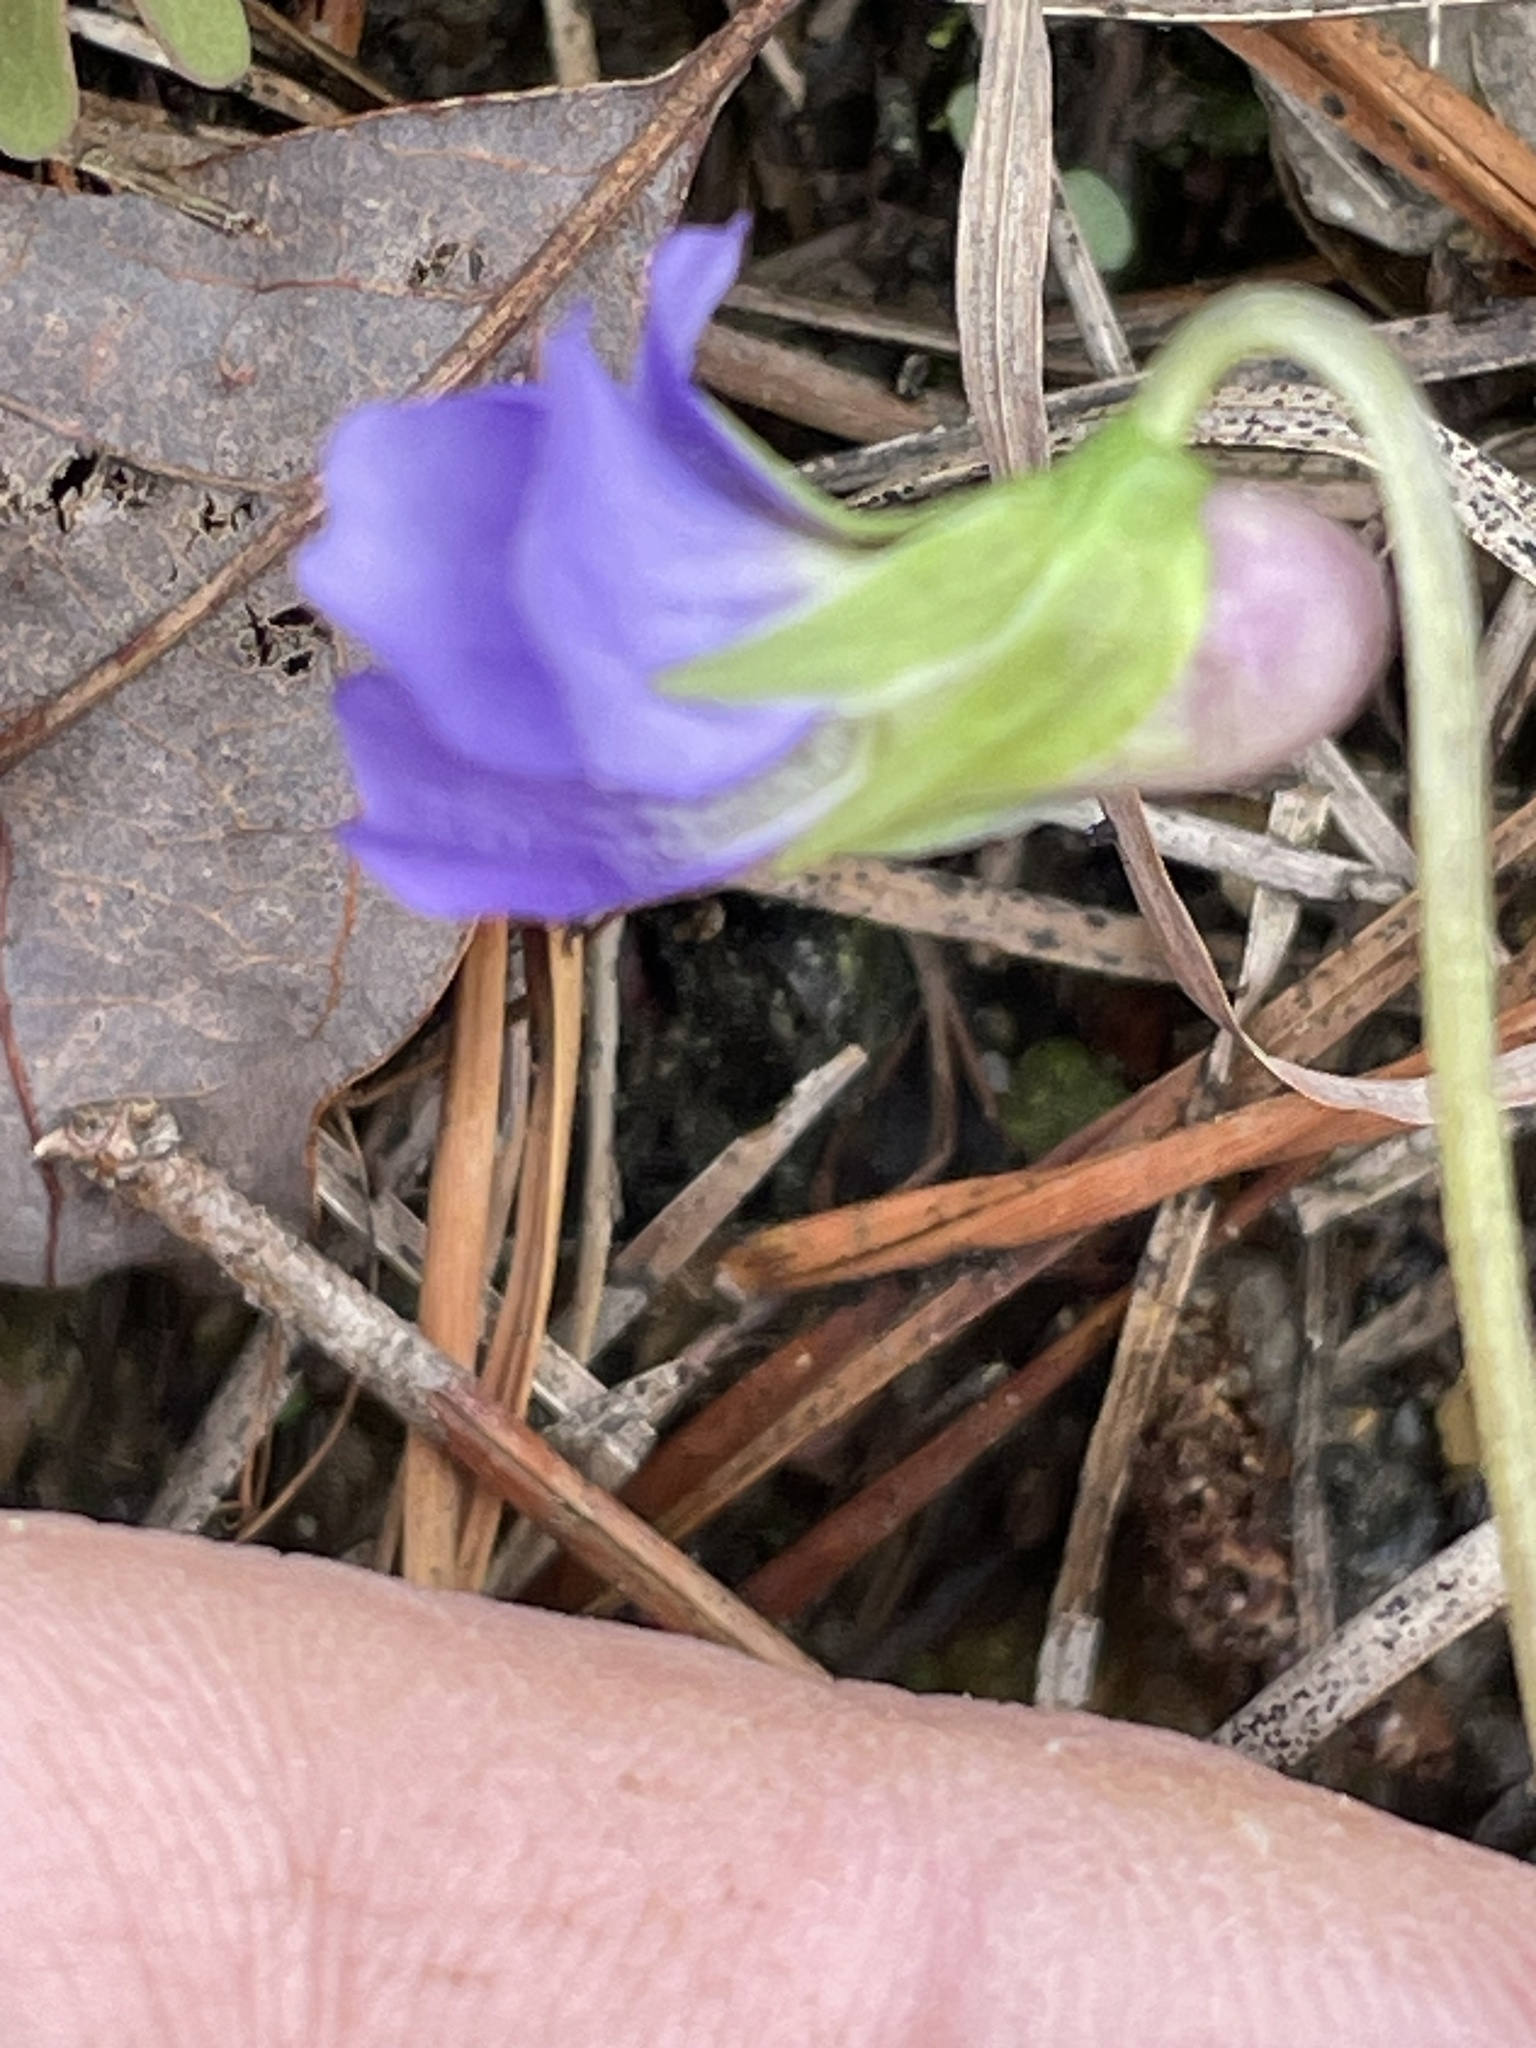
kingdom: Plantae
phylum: Tracheophyta
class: Magnoliopsida
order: Malpighiales
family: Violaceae
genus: Viola
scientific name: Viola emarginata
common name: Triangle-leaved violet
